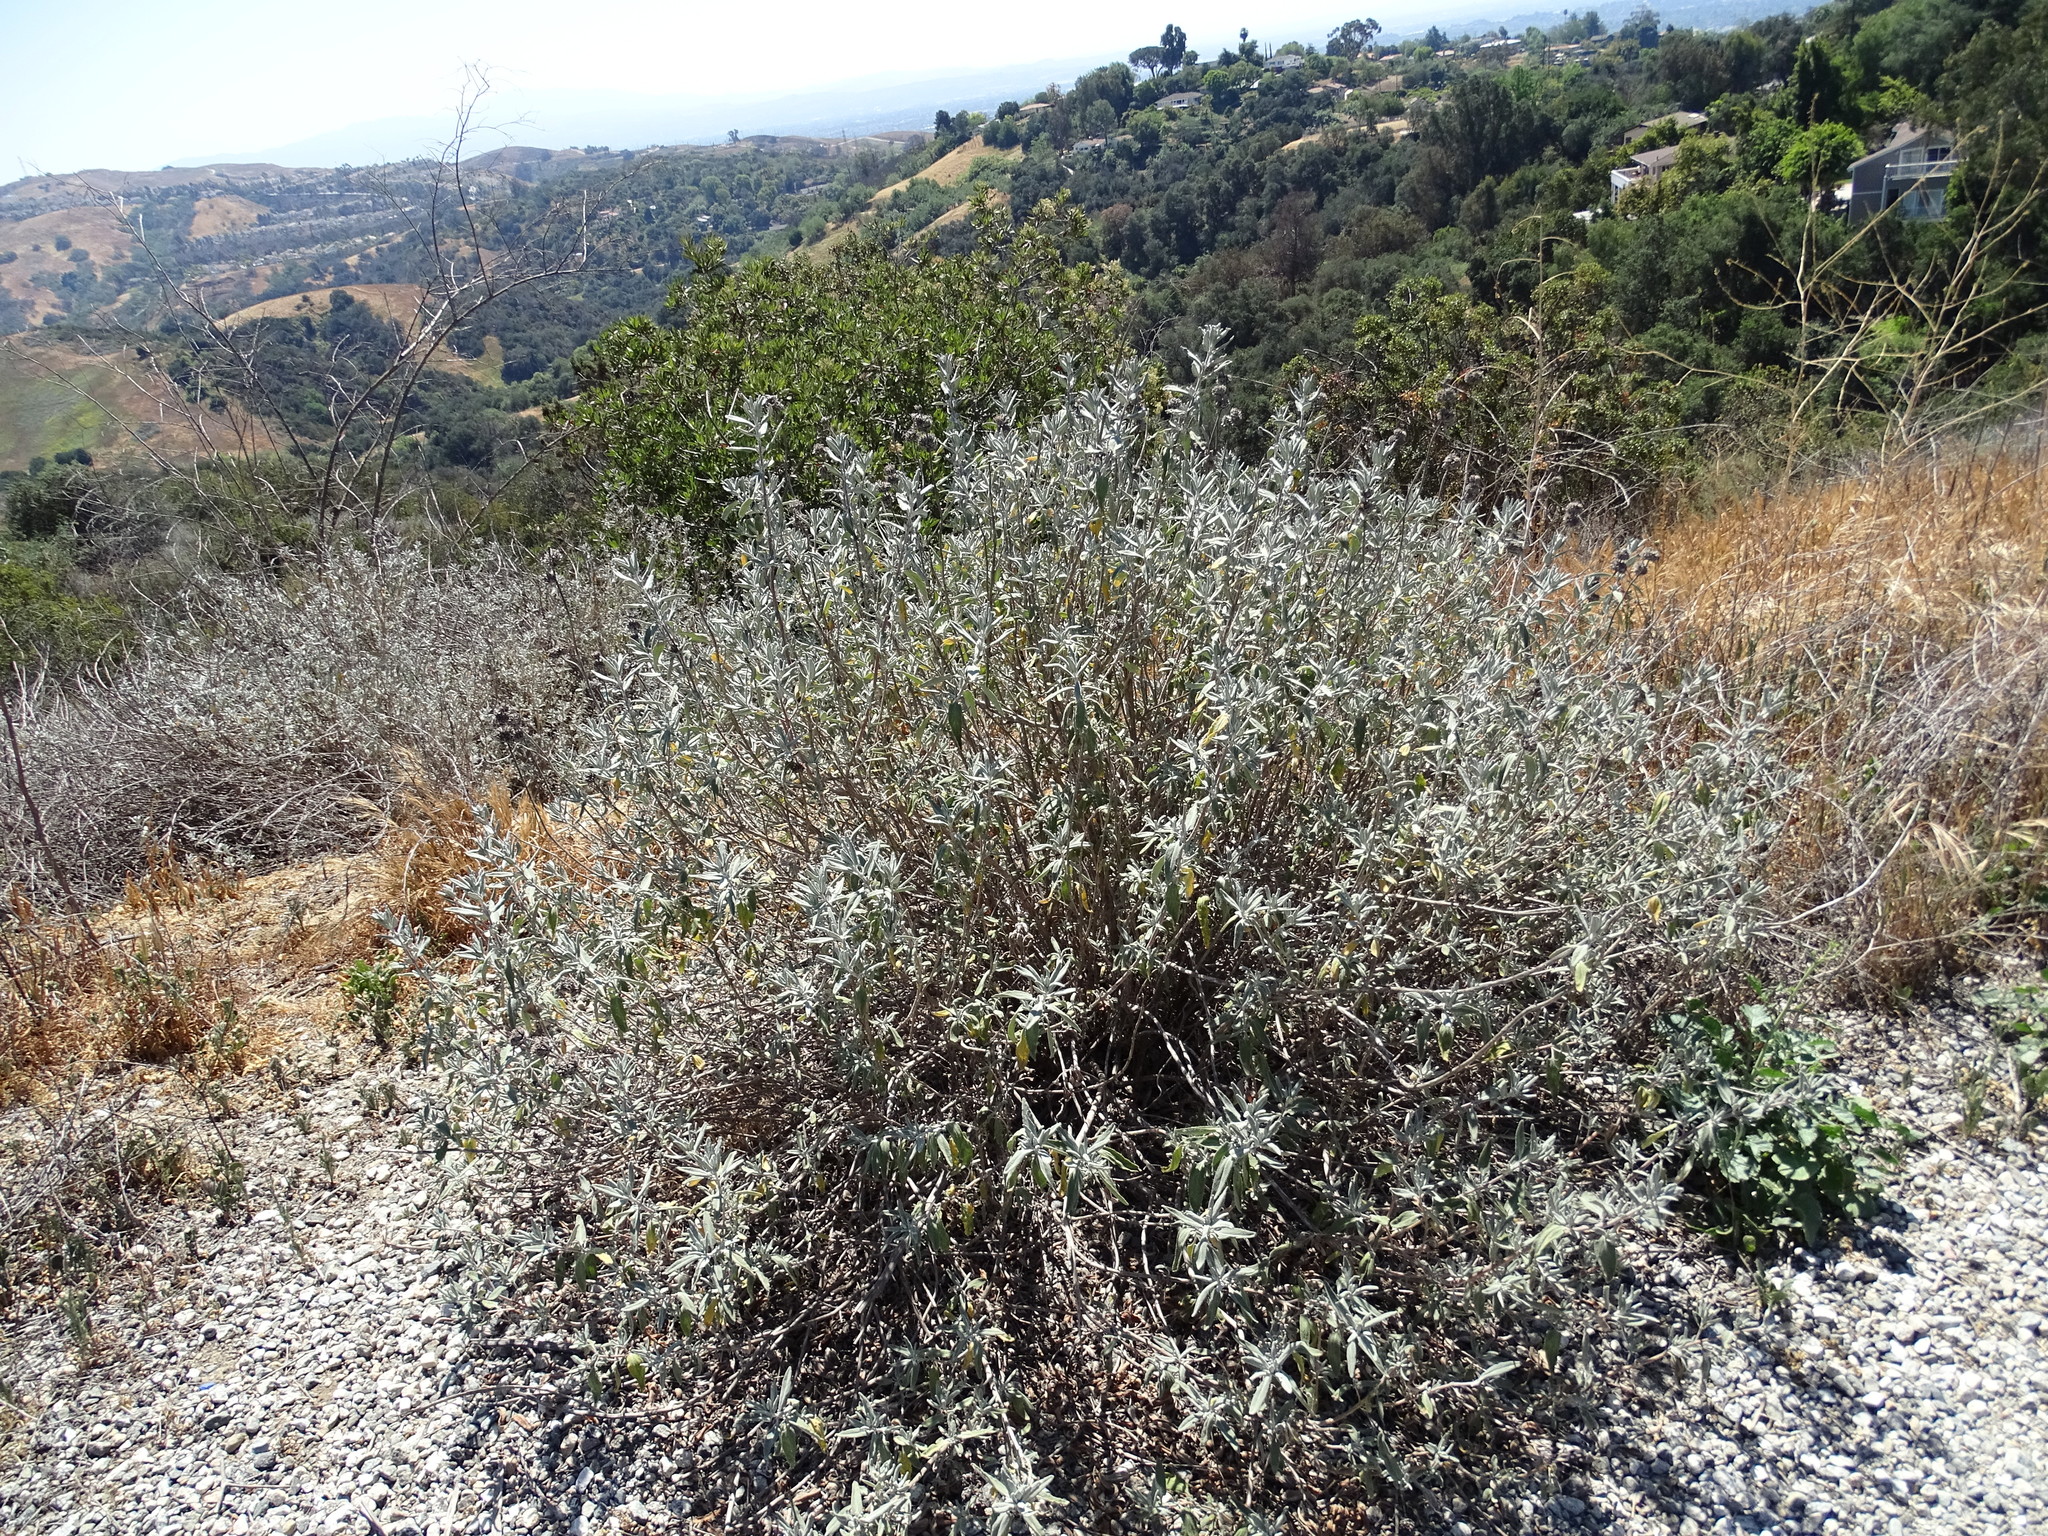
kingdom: Plantae
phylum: Tracheophyta
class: Magnoliopsida
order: Lamiales
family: Lamiaceae
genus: Salvia
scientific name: Salvia leucophylla
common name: Purple sage
